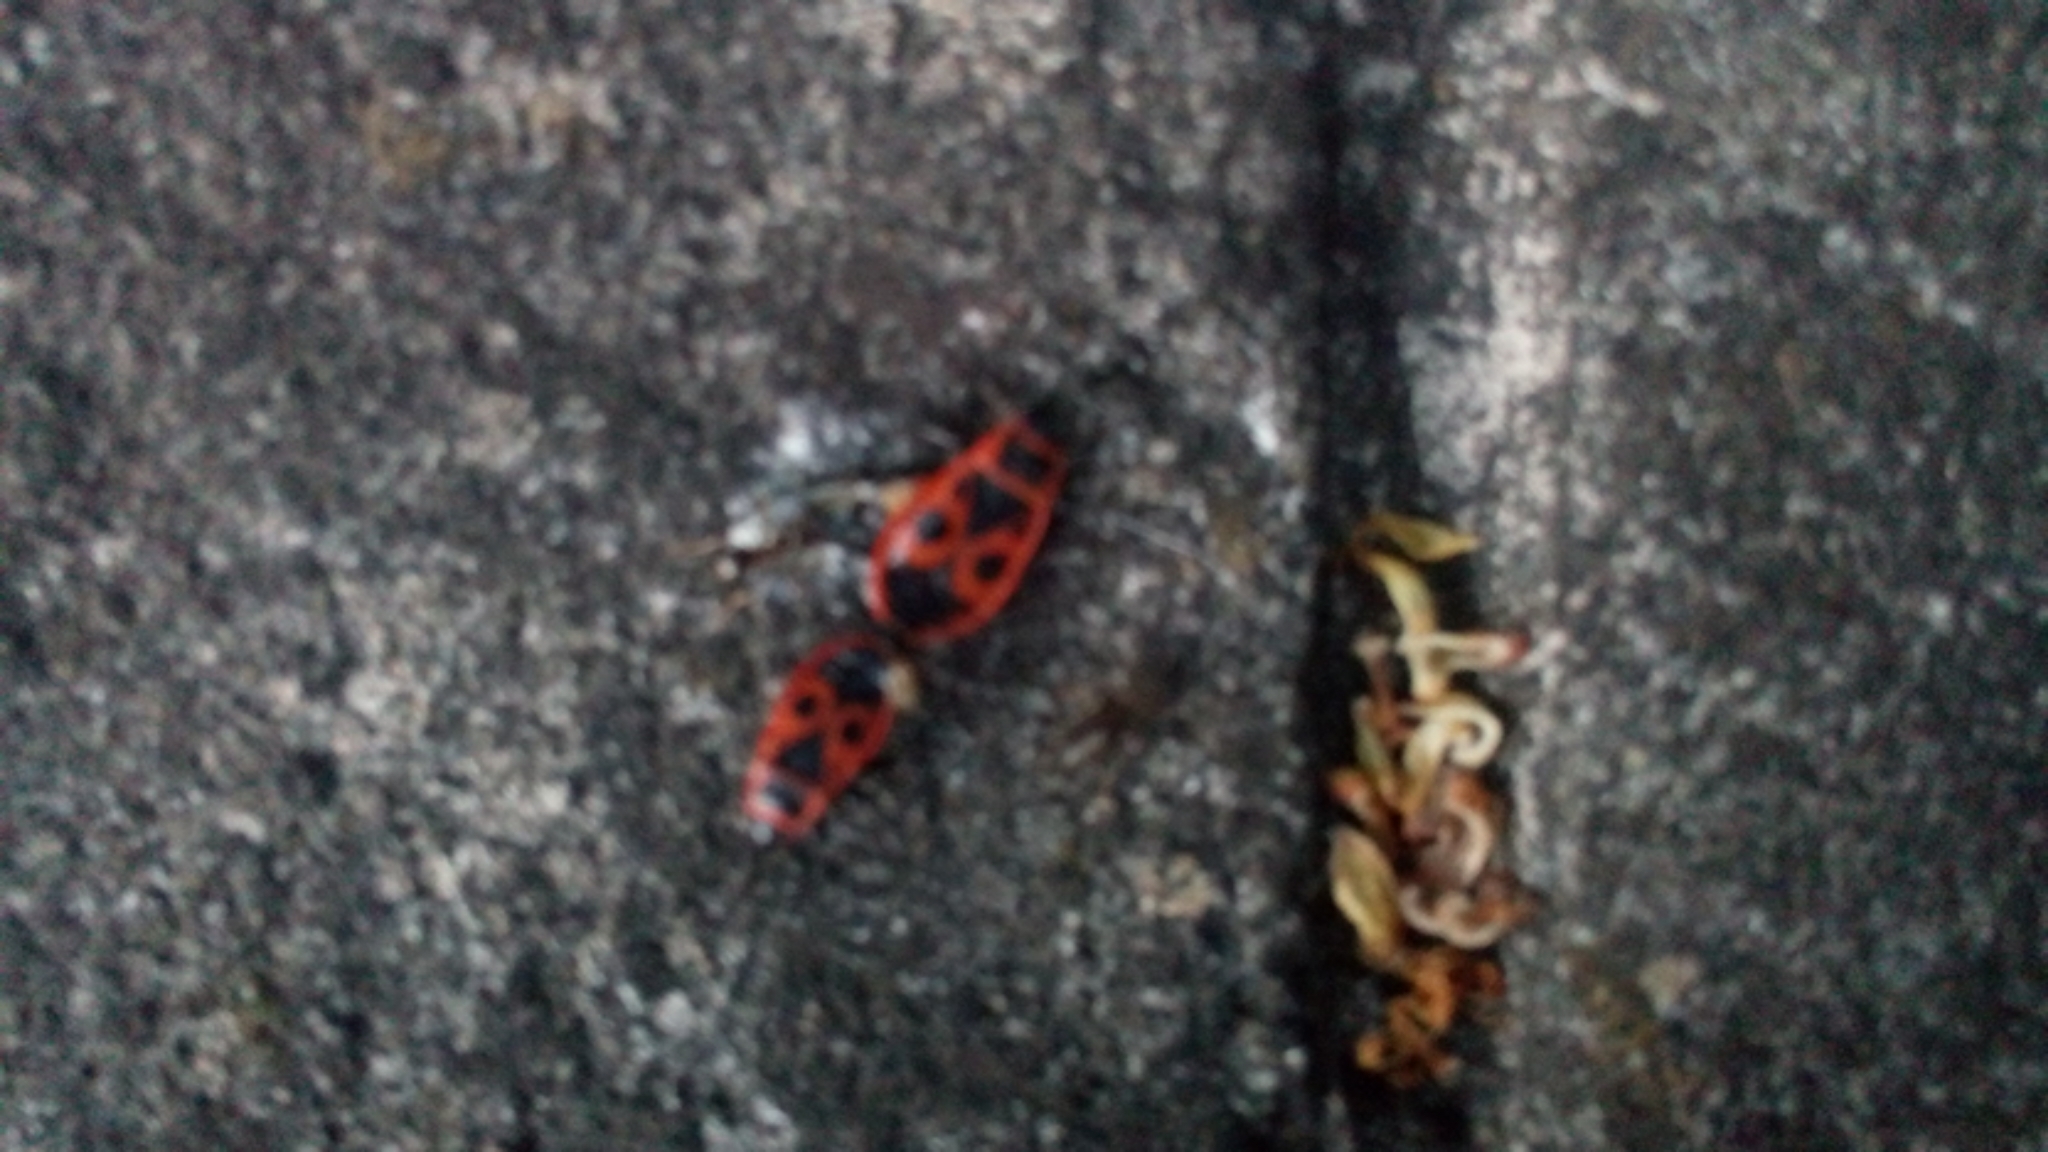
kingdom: Animalia
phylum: Arthropoda
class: Insecta
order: Hemiptera
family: Pyrrhocoridae
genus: Pyrrhocoris
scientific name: Pyrrhocoris apterus
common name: Firebug
